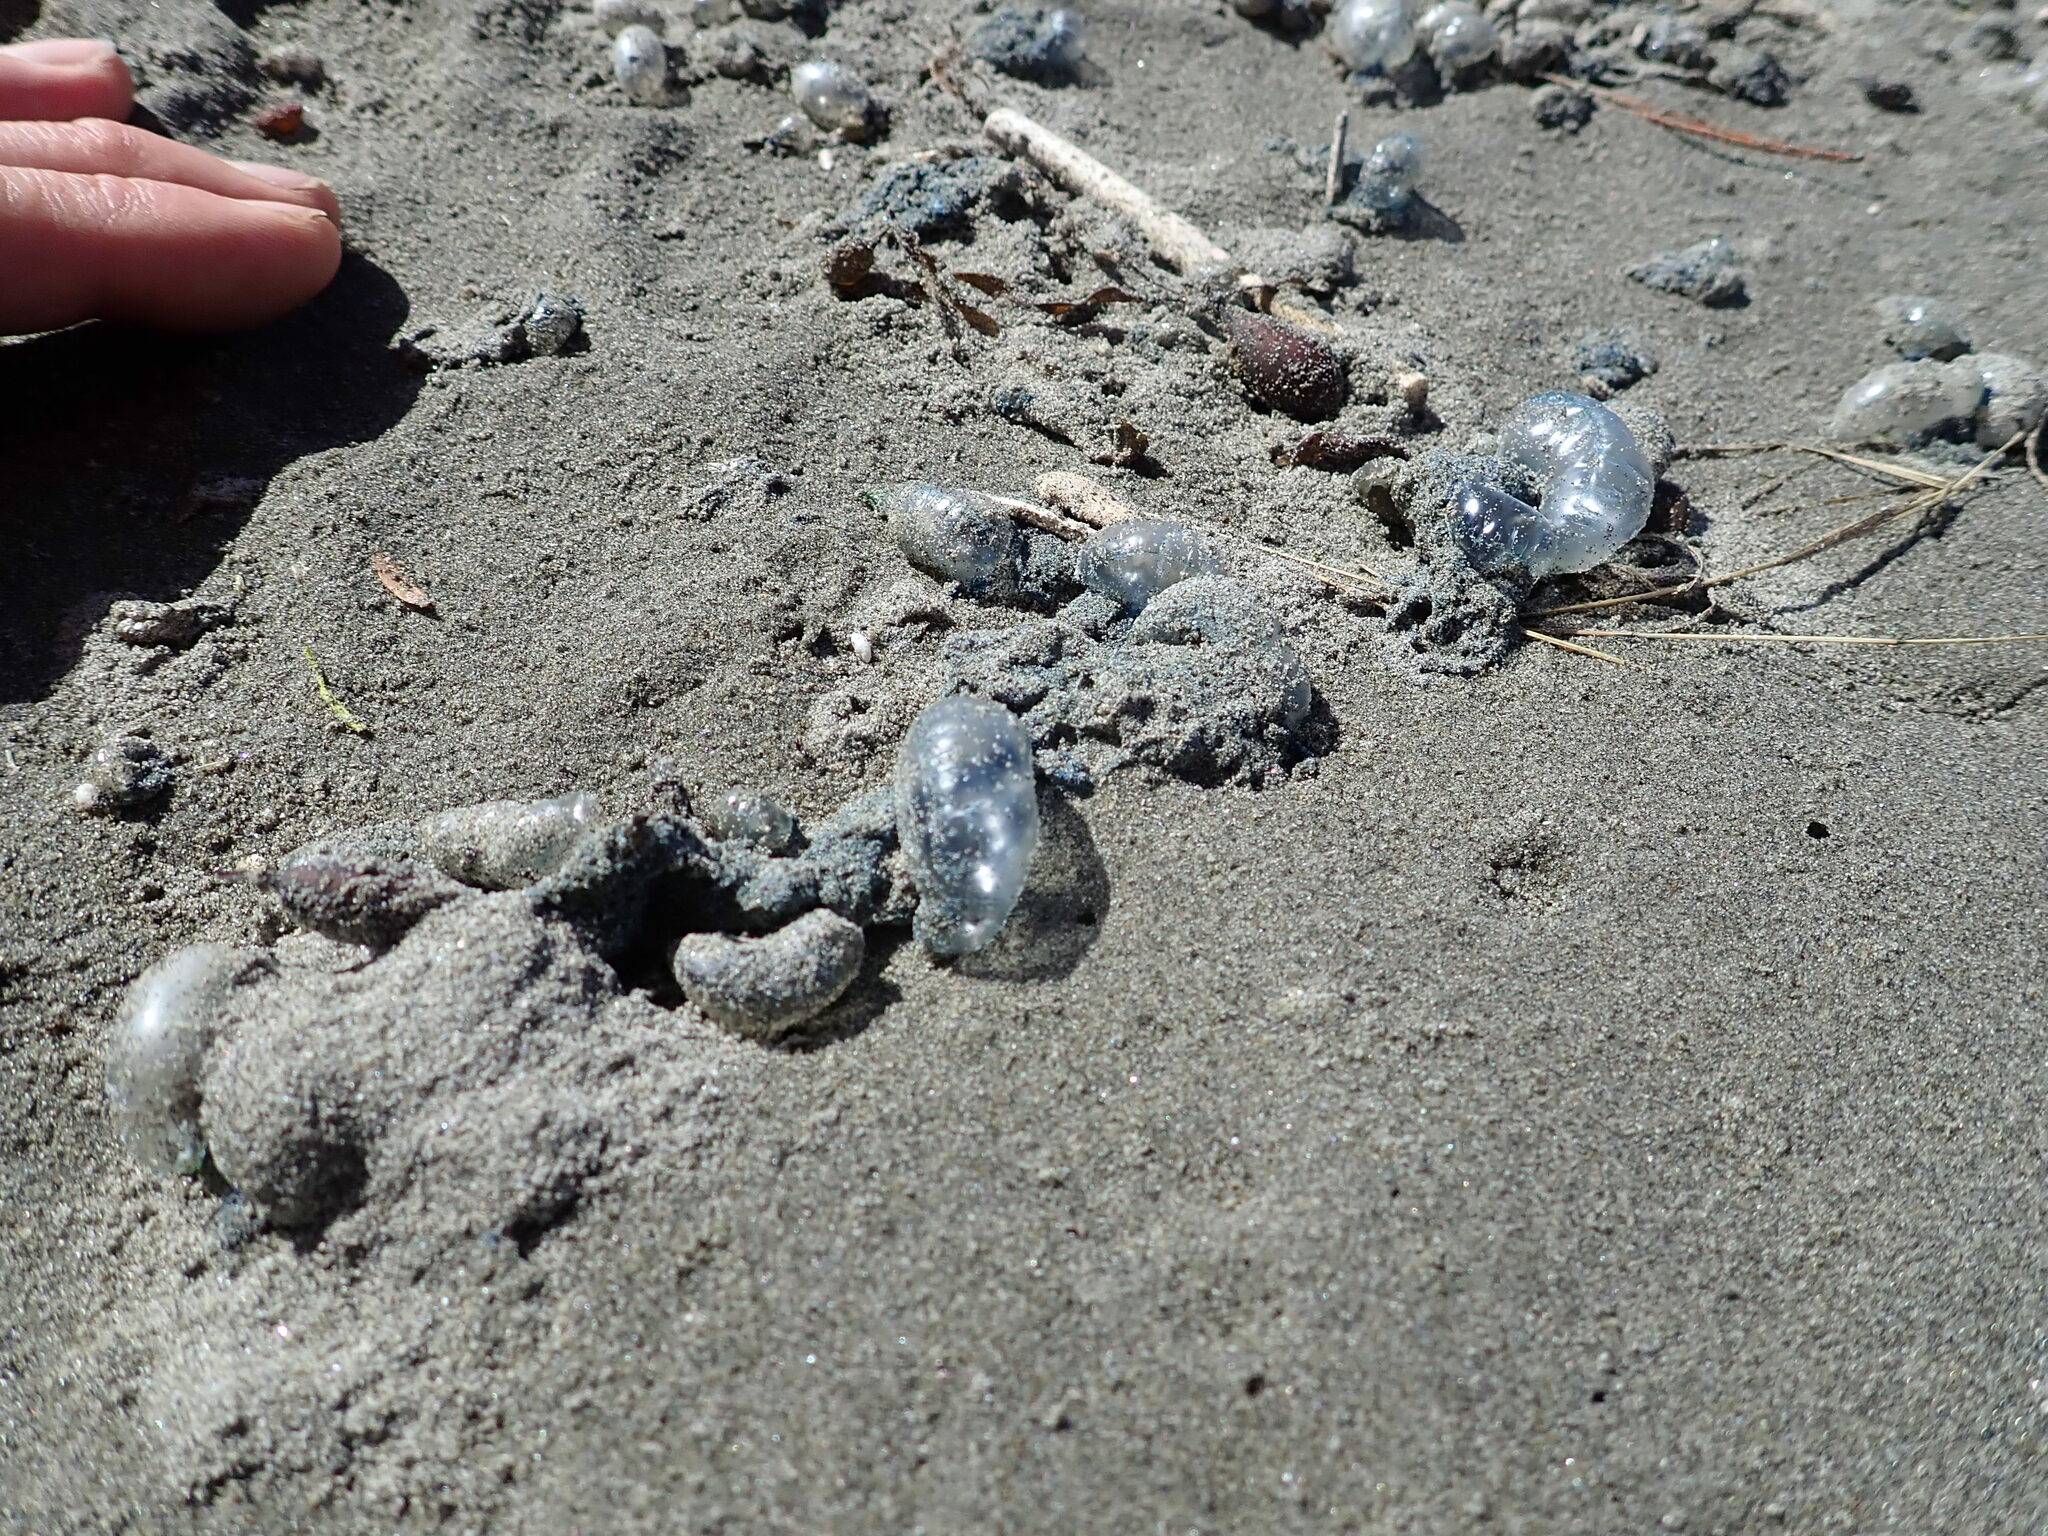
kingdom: Animalia
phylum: Cnidaria
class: Hydrozoa
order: Siphonophorae
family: Physaliidae
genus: Physalia
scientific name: Physalia physalis
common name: Portuguese man-of-war
